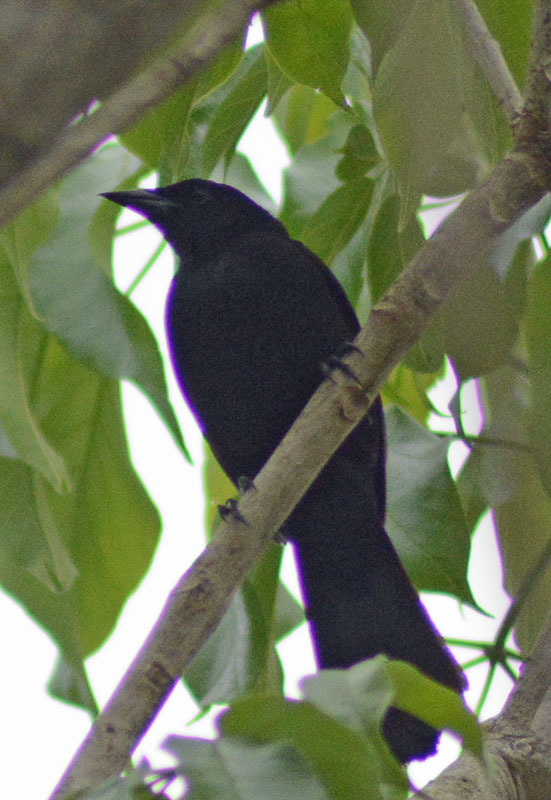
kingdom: Animalia
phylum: Chordata
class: Aves
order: Passeriformes
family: Icteridae
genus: Dives
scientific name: Dives dives
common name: Melodious blackbird
